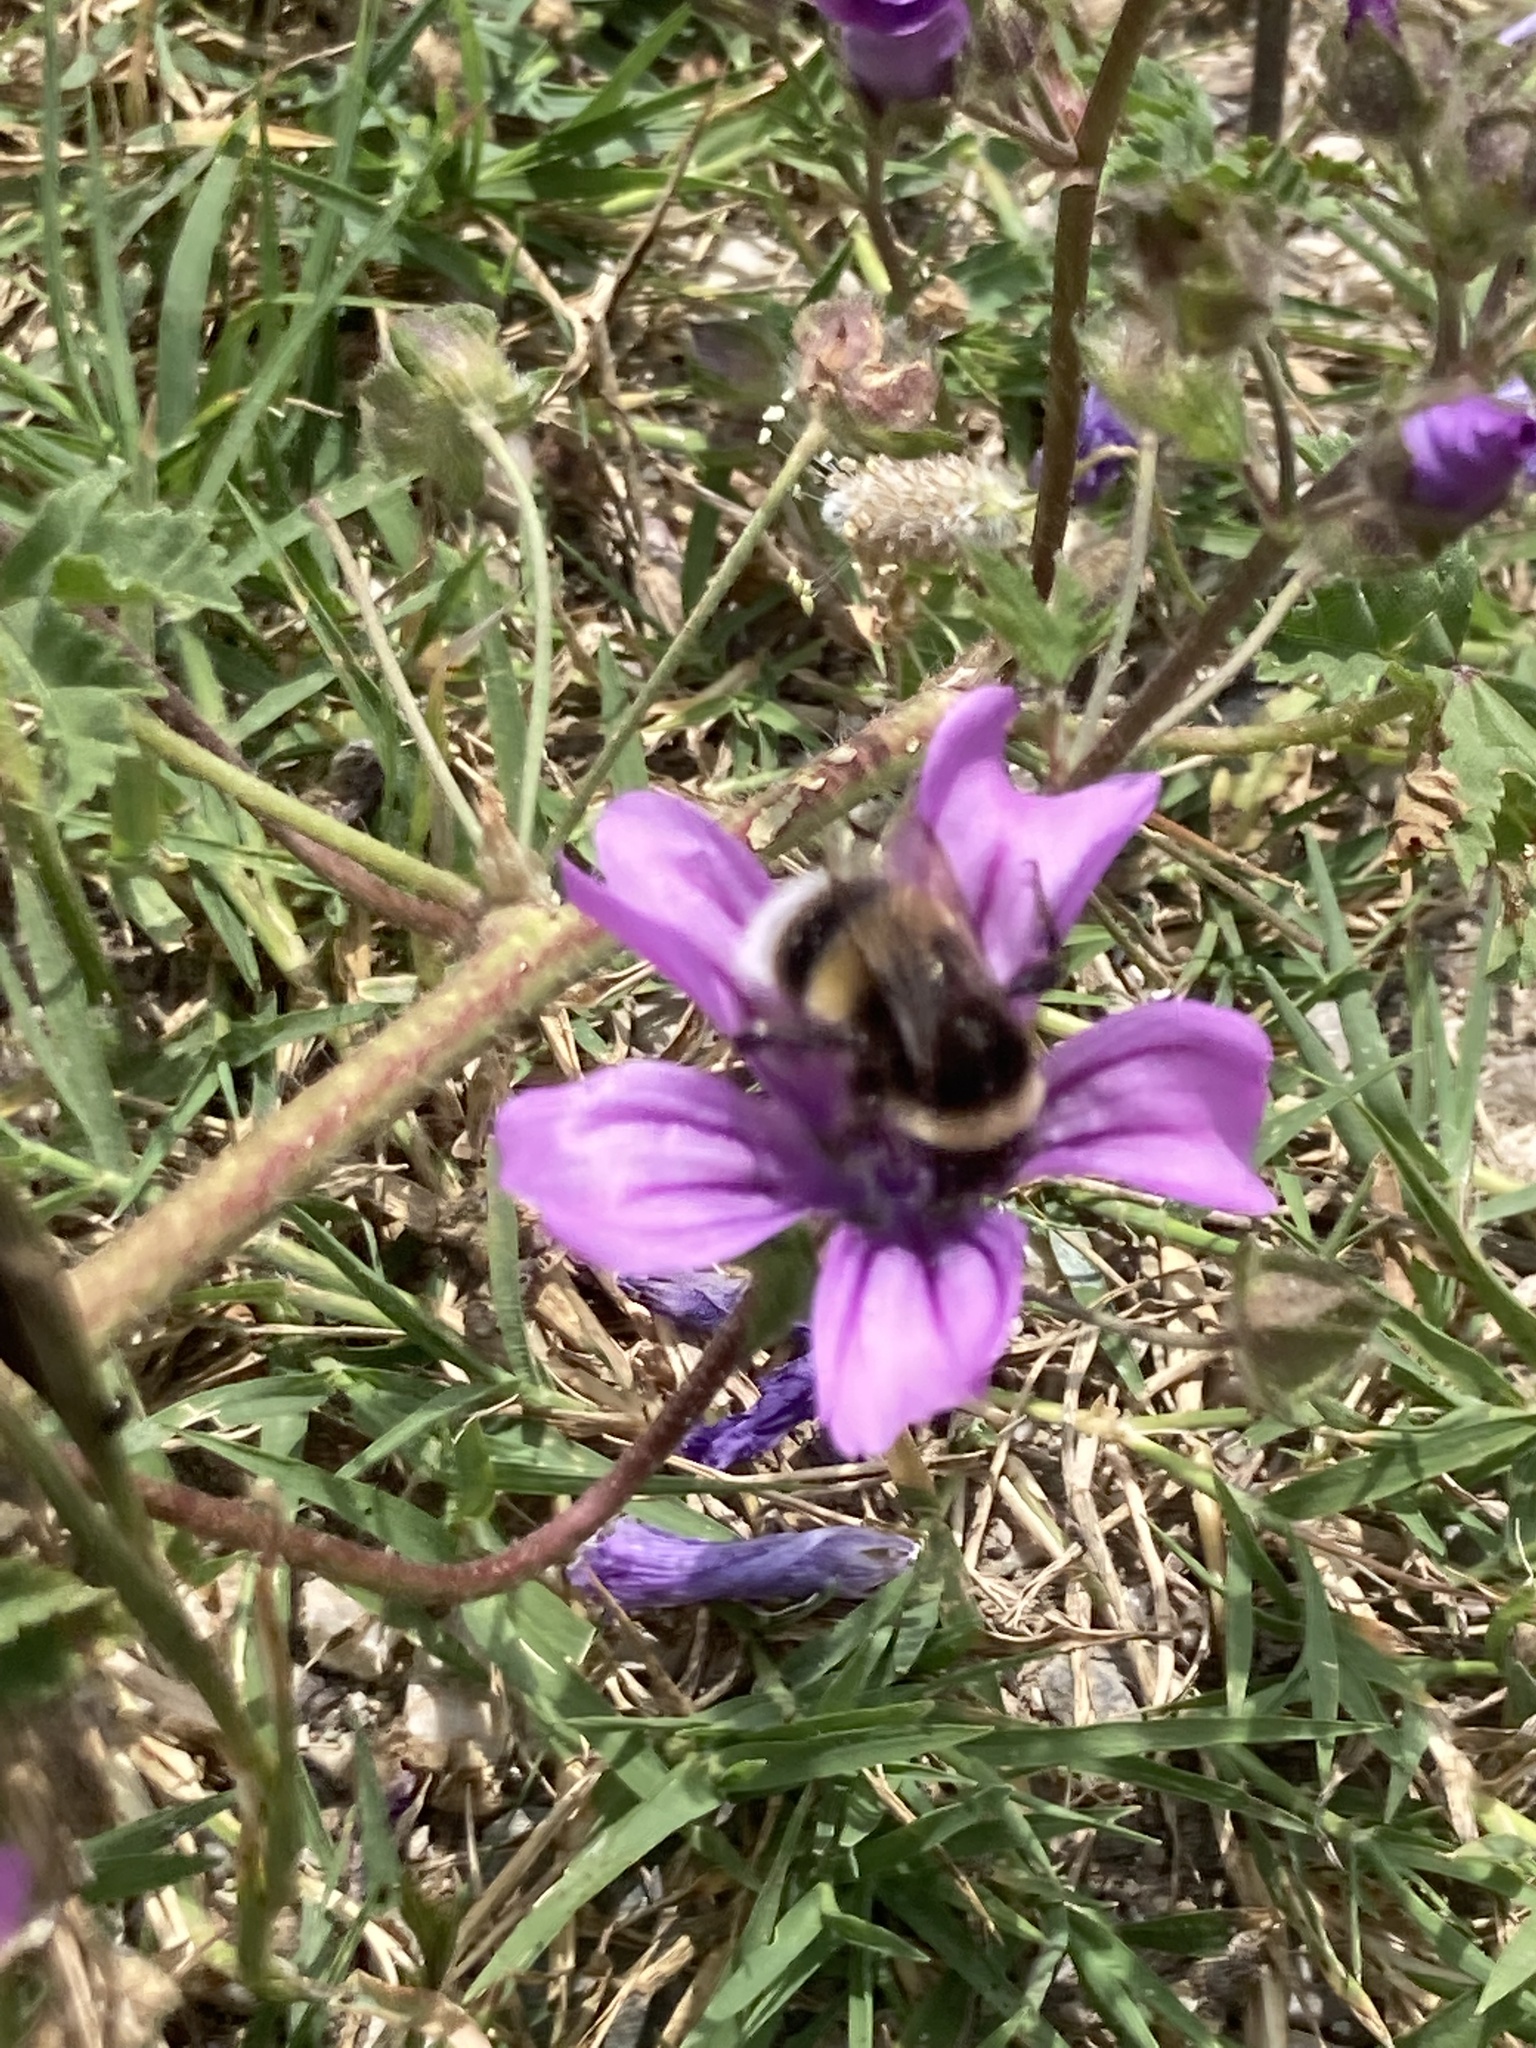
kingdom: Plantae
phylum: Tracheophyta
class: Magnoliopsida
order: Malvales
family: Malvaceae
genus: Malva
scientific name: Malva sylvestris
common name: Common mallow
